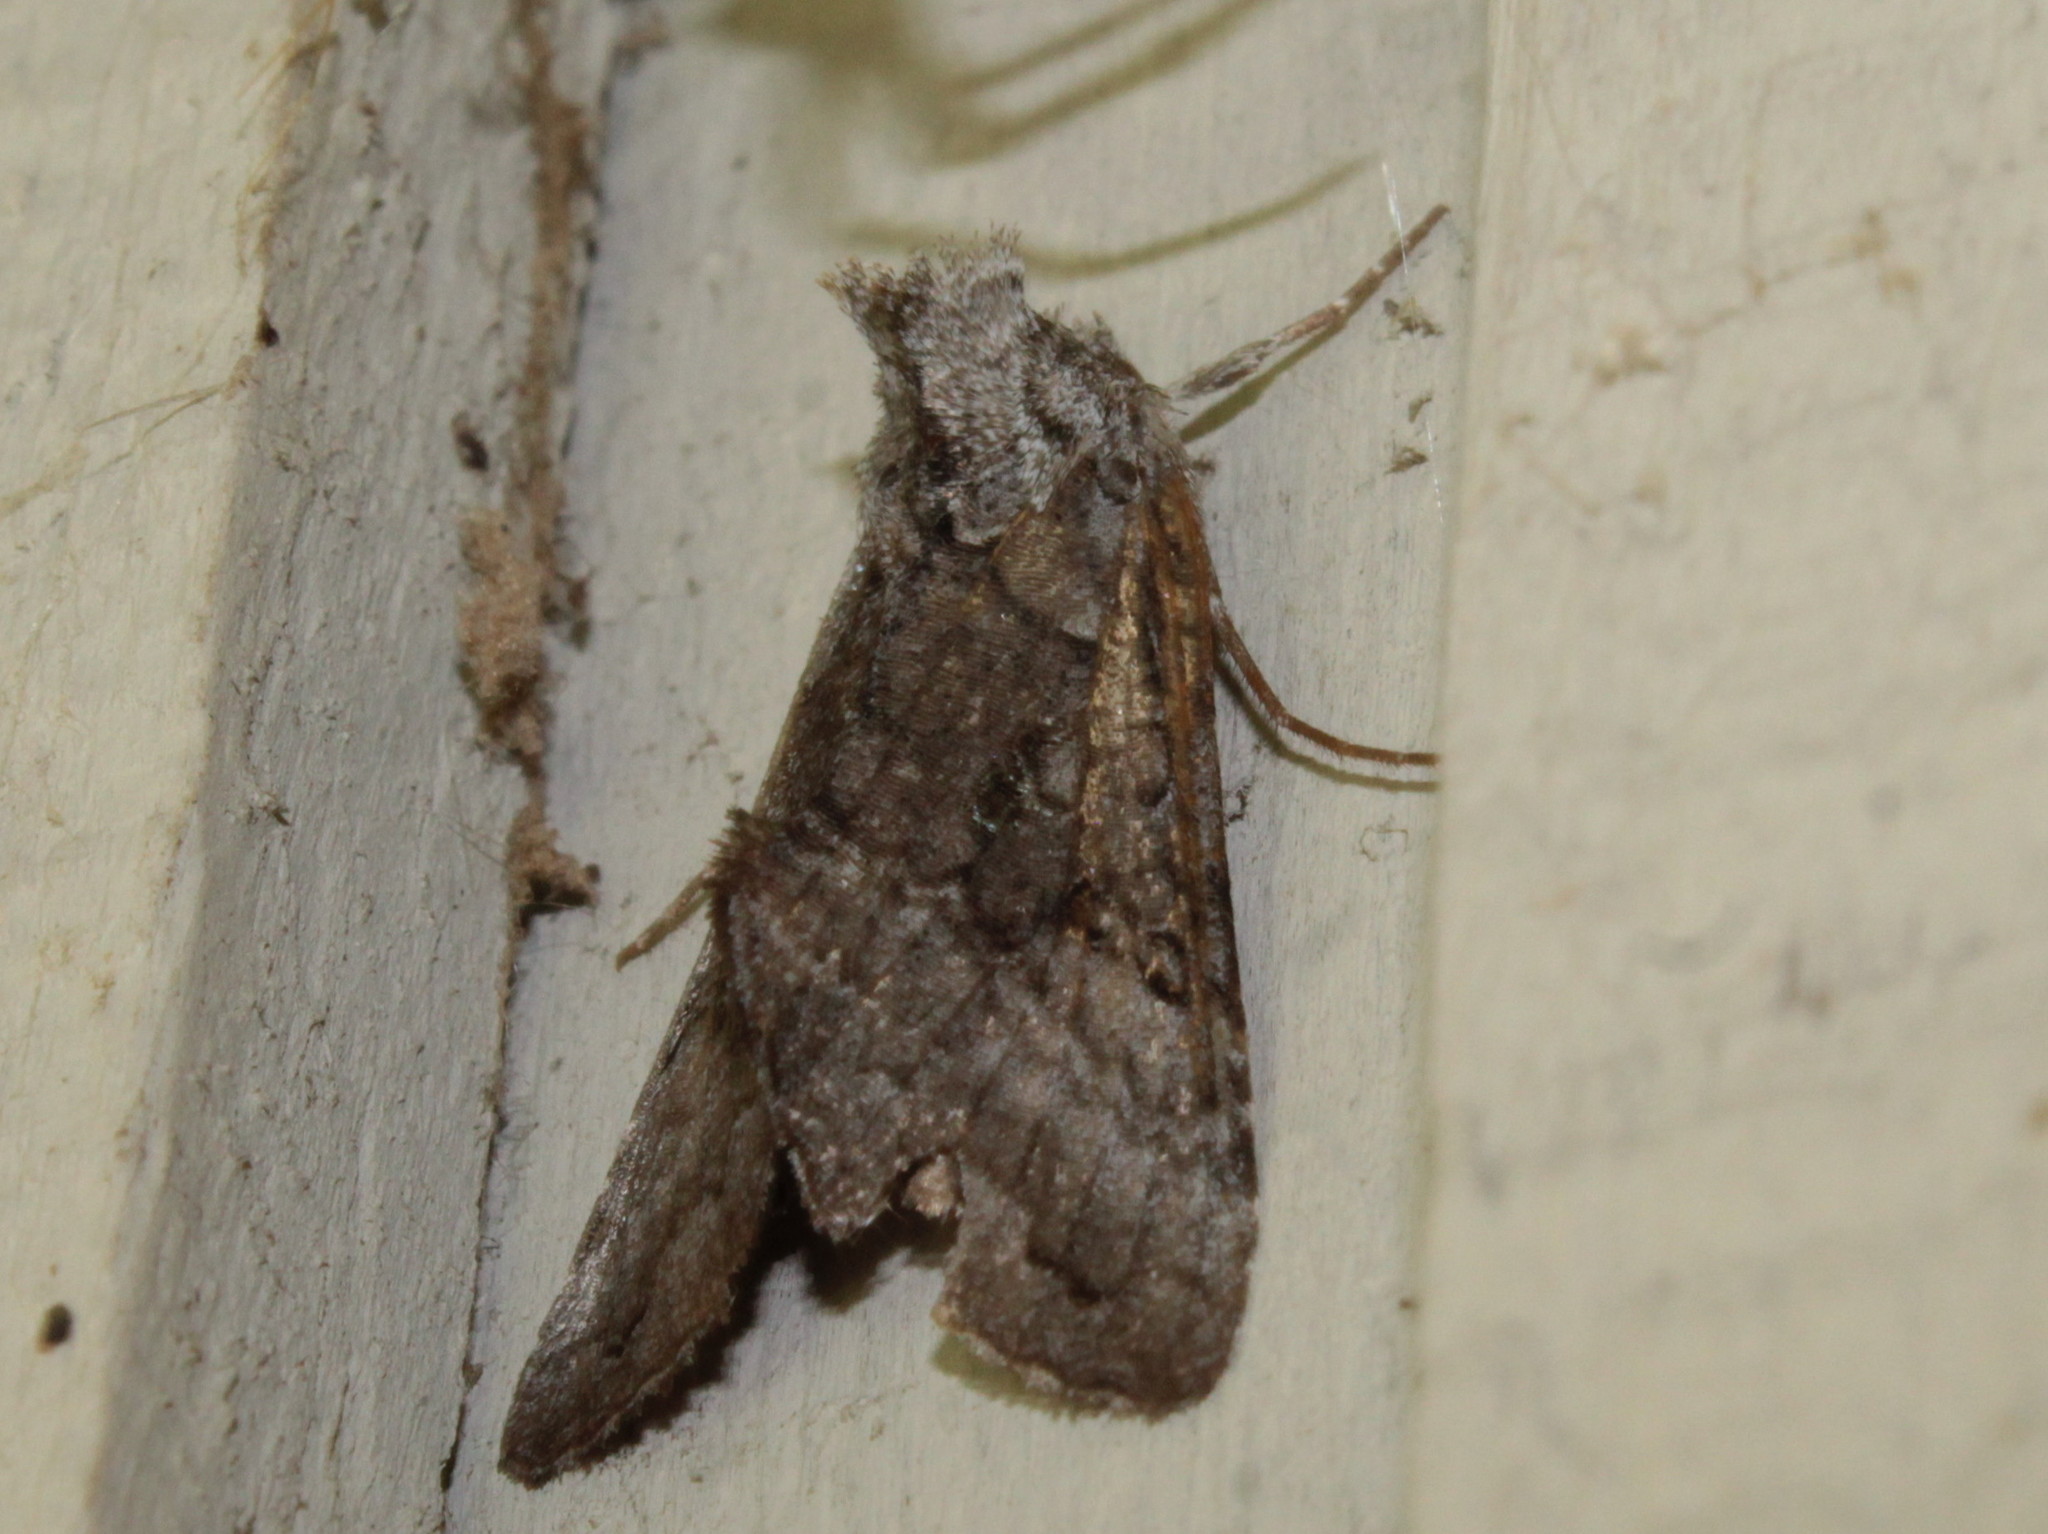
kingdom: Animalia
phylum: Arthropoda
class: Insecta
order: Lepidoptera
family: Noctuidae
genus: Syngrapha
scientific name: Syngrapha viridisigma
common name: Spruce false looper moth
